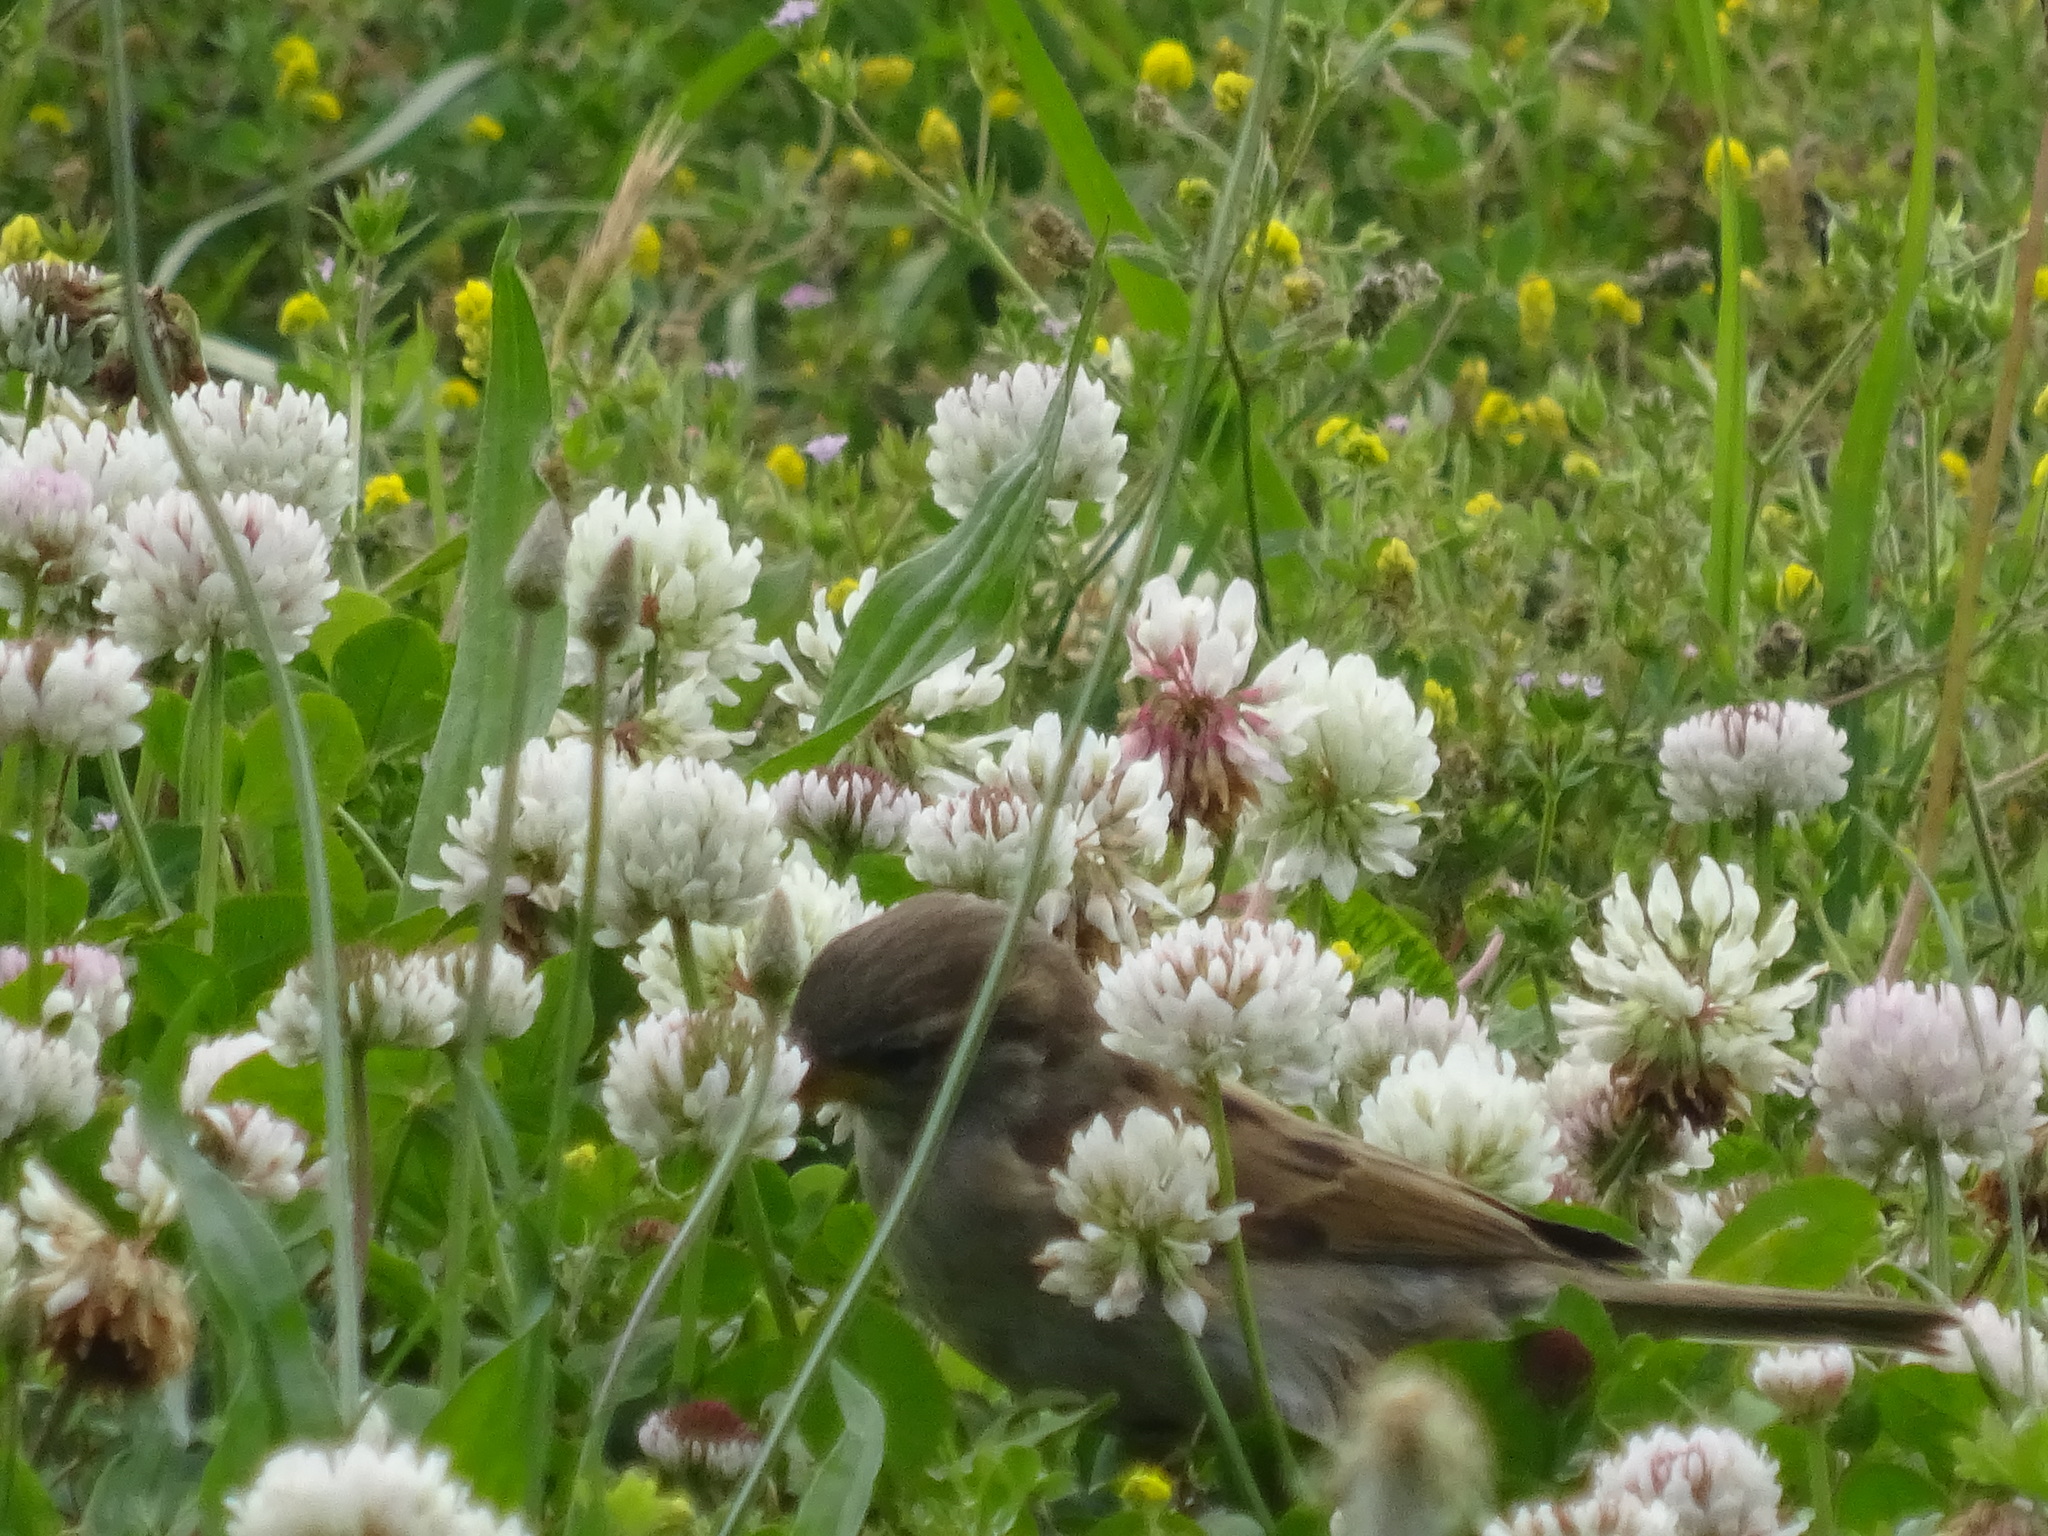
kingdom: Animalia
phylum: Chordata
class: Aves
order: Passeriformes
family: Passeridae
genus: Passer
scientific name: Passer domesticus
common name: House sparrow
